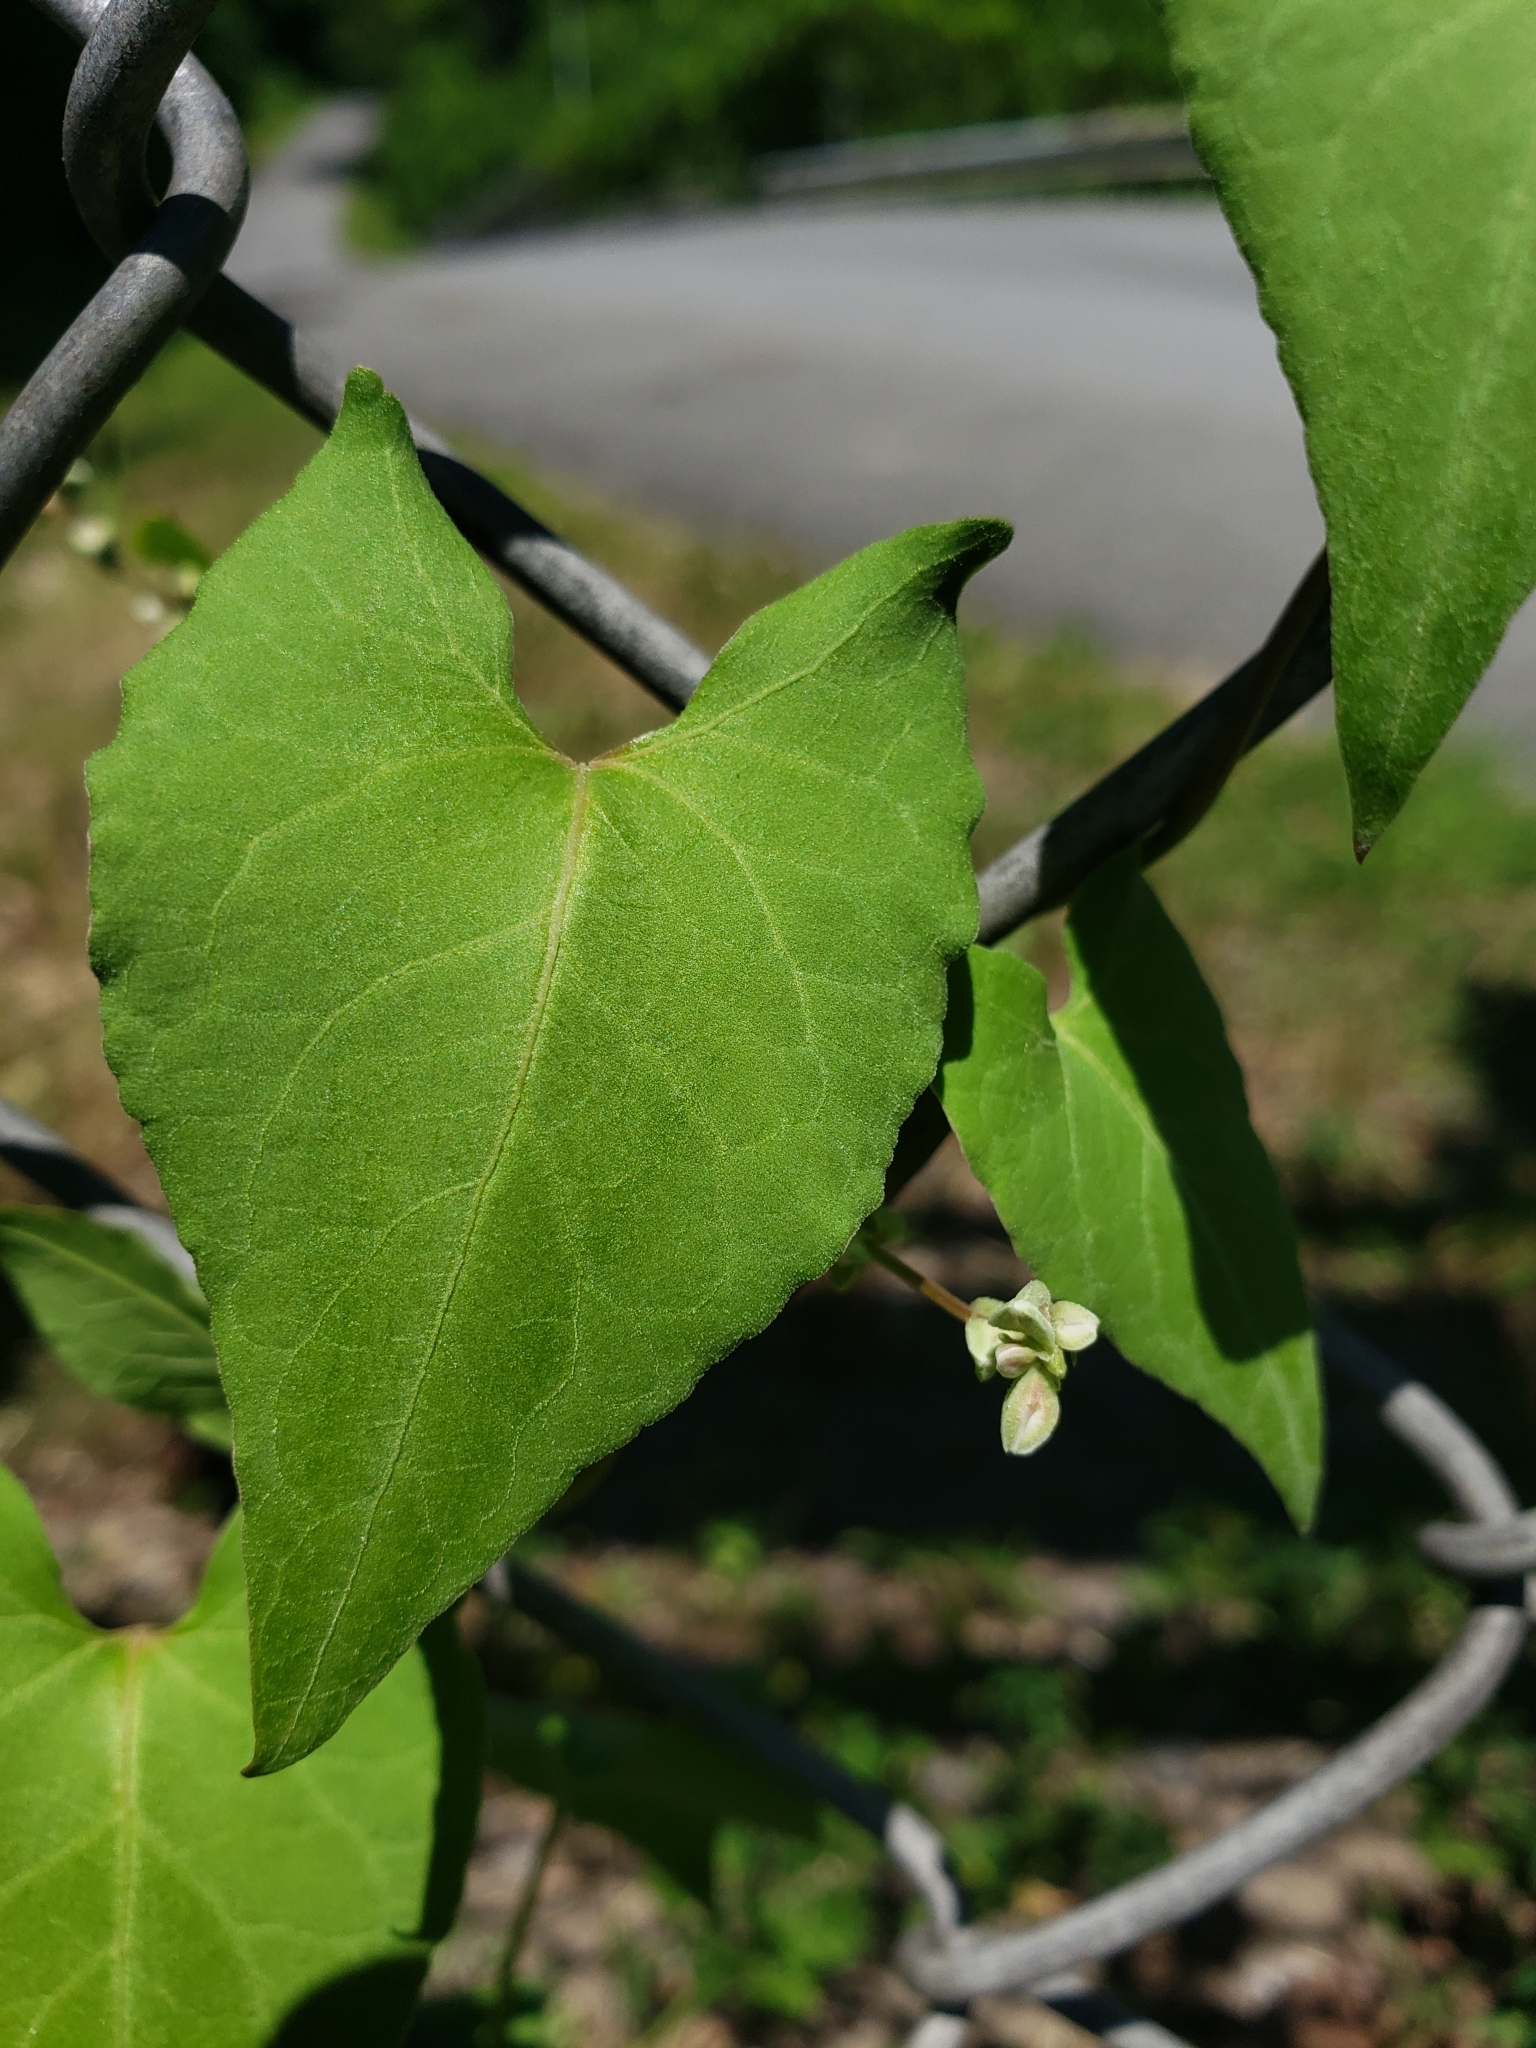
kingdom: Plantae
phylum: Tracheophyta
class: Magnoliopsida
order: Caryophyllales
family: Polygonaceae
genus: Fallopia
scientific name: Fallopia scandens
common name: Climbing false buckwheat
